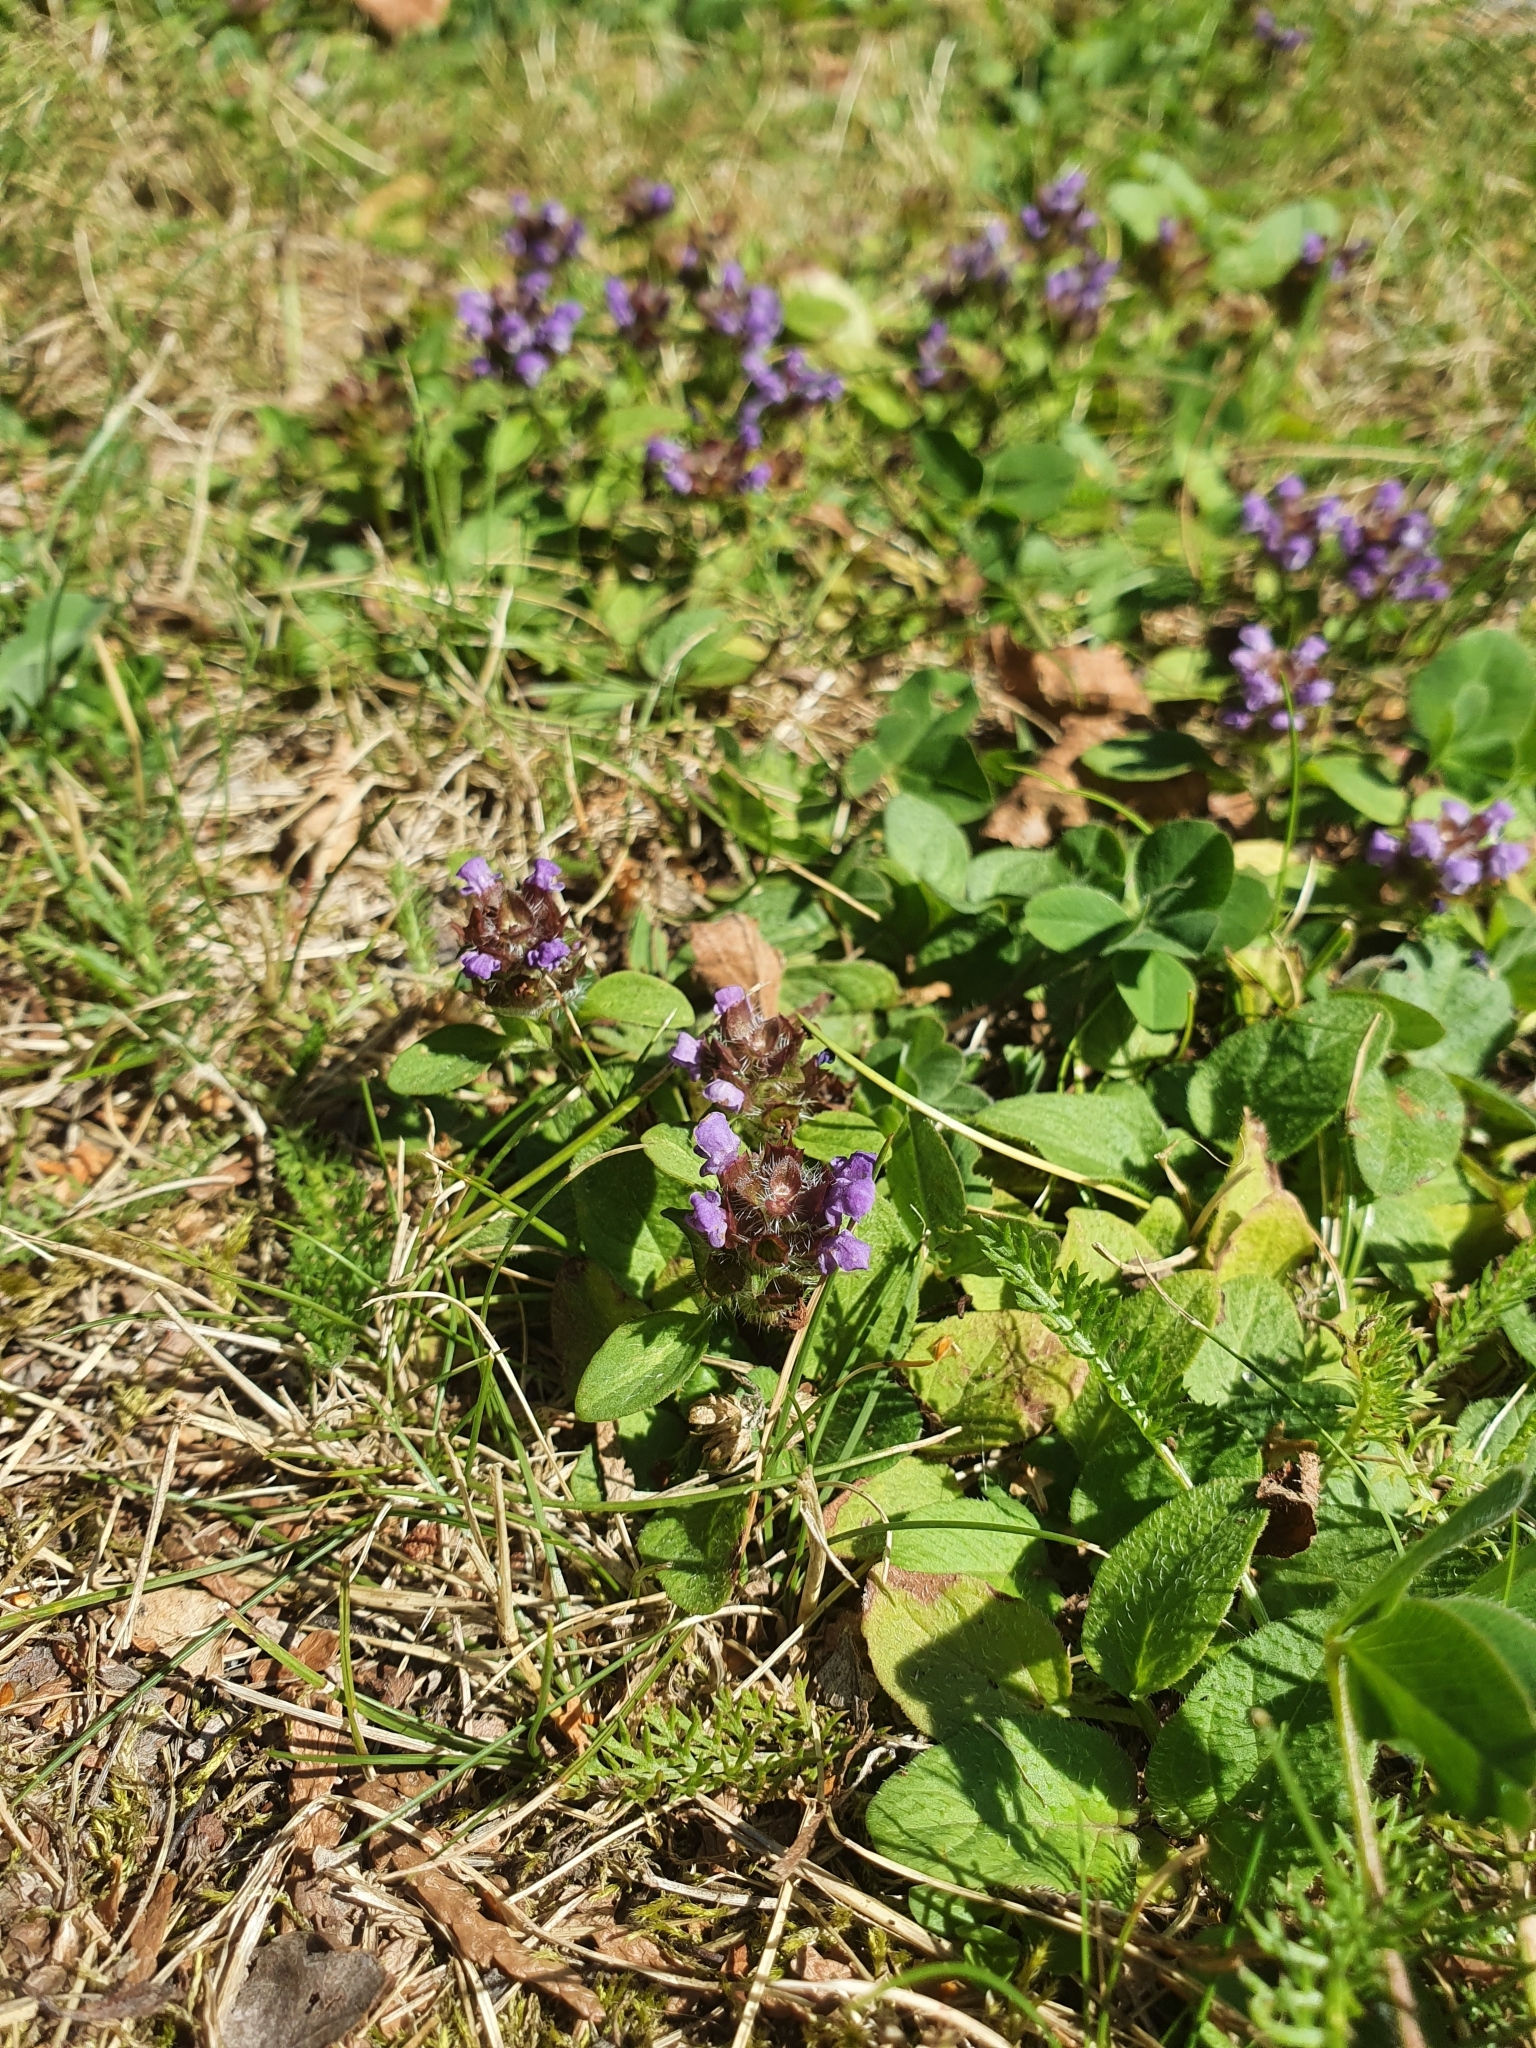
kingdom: Plantae
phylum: Tracheophyta
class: Magnoliopsida
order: Lamiales
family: Lamiaceae
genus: Prunella
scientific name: Prunella vulgaris
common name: Heal-all
